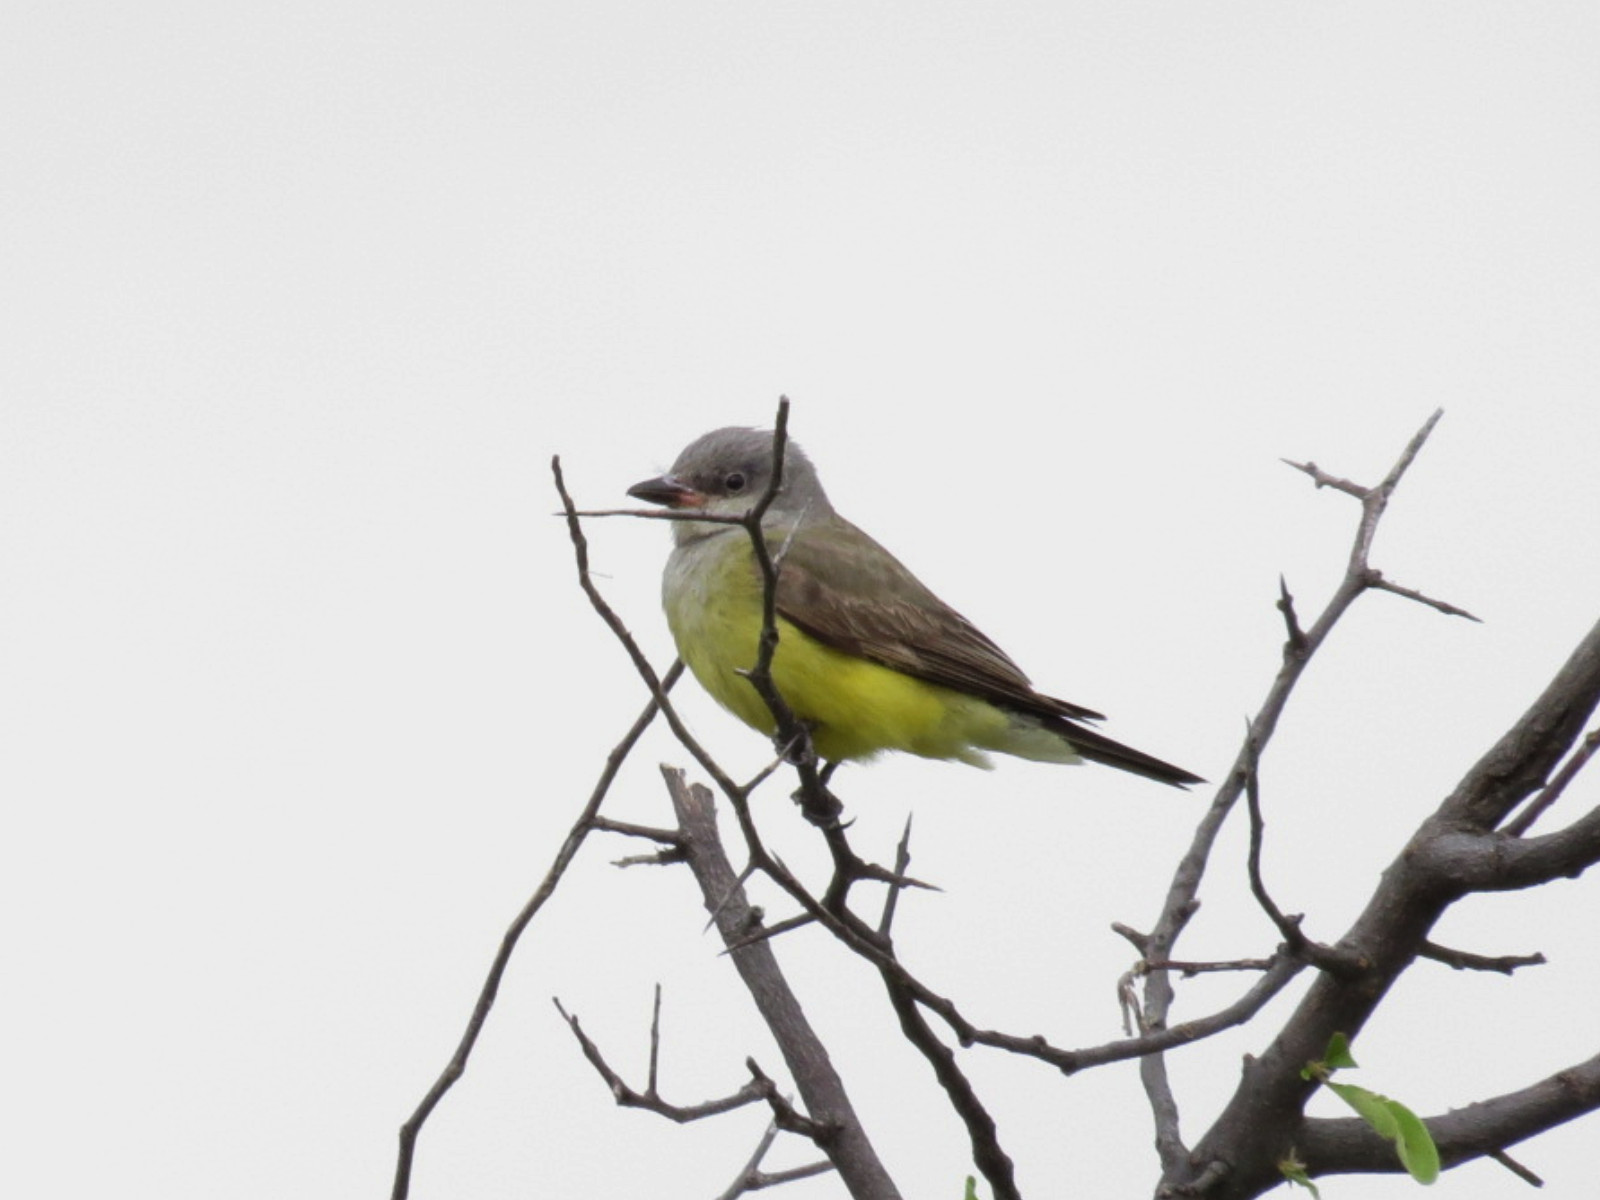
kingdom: Animalia
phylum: Chordata
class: Aves
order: Passeriformes
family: Tyrannidae
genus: Tyrannus
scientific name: Tyrannus verticalis
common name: Western kingbird
